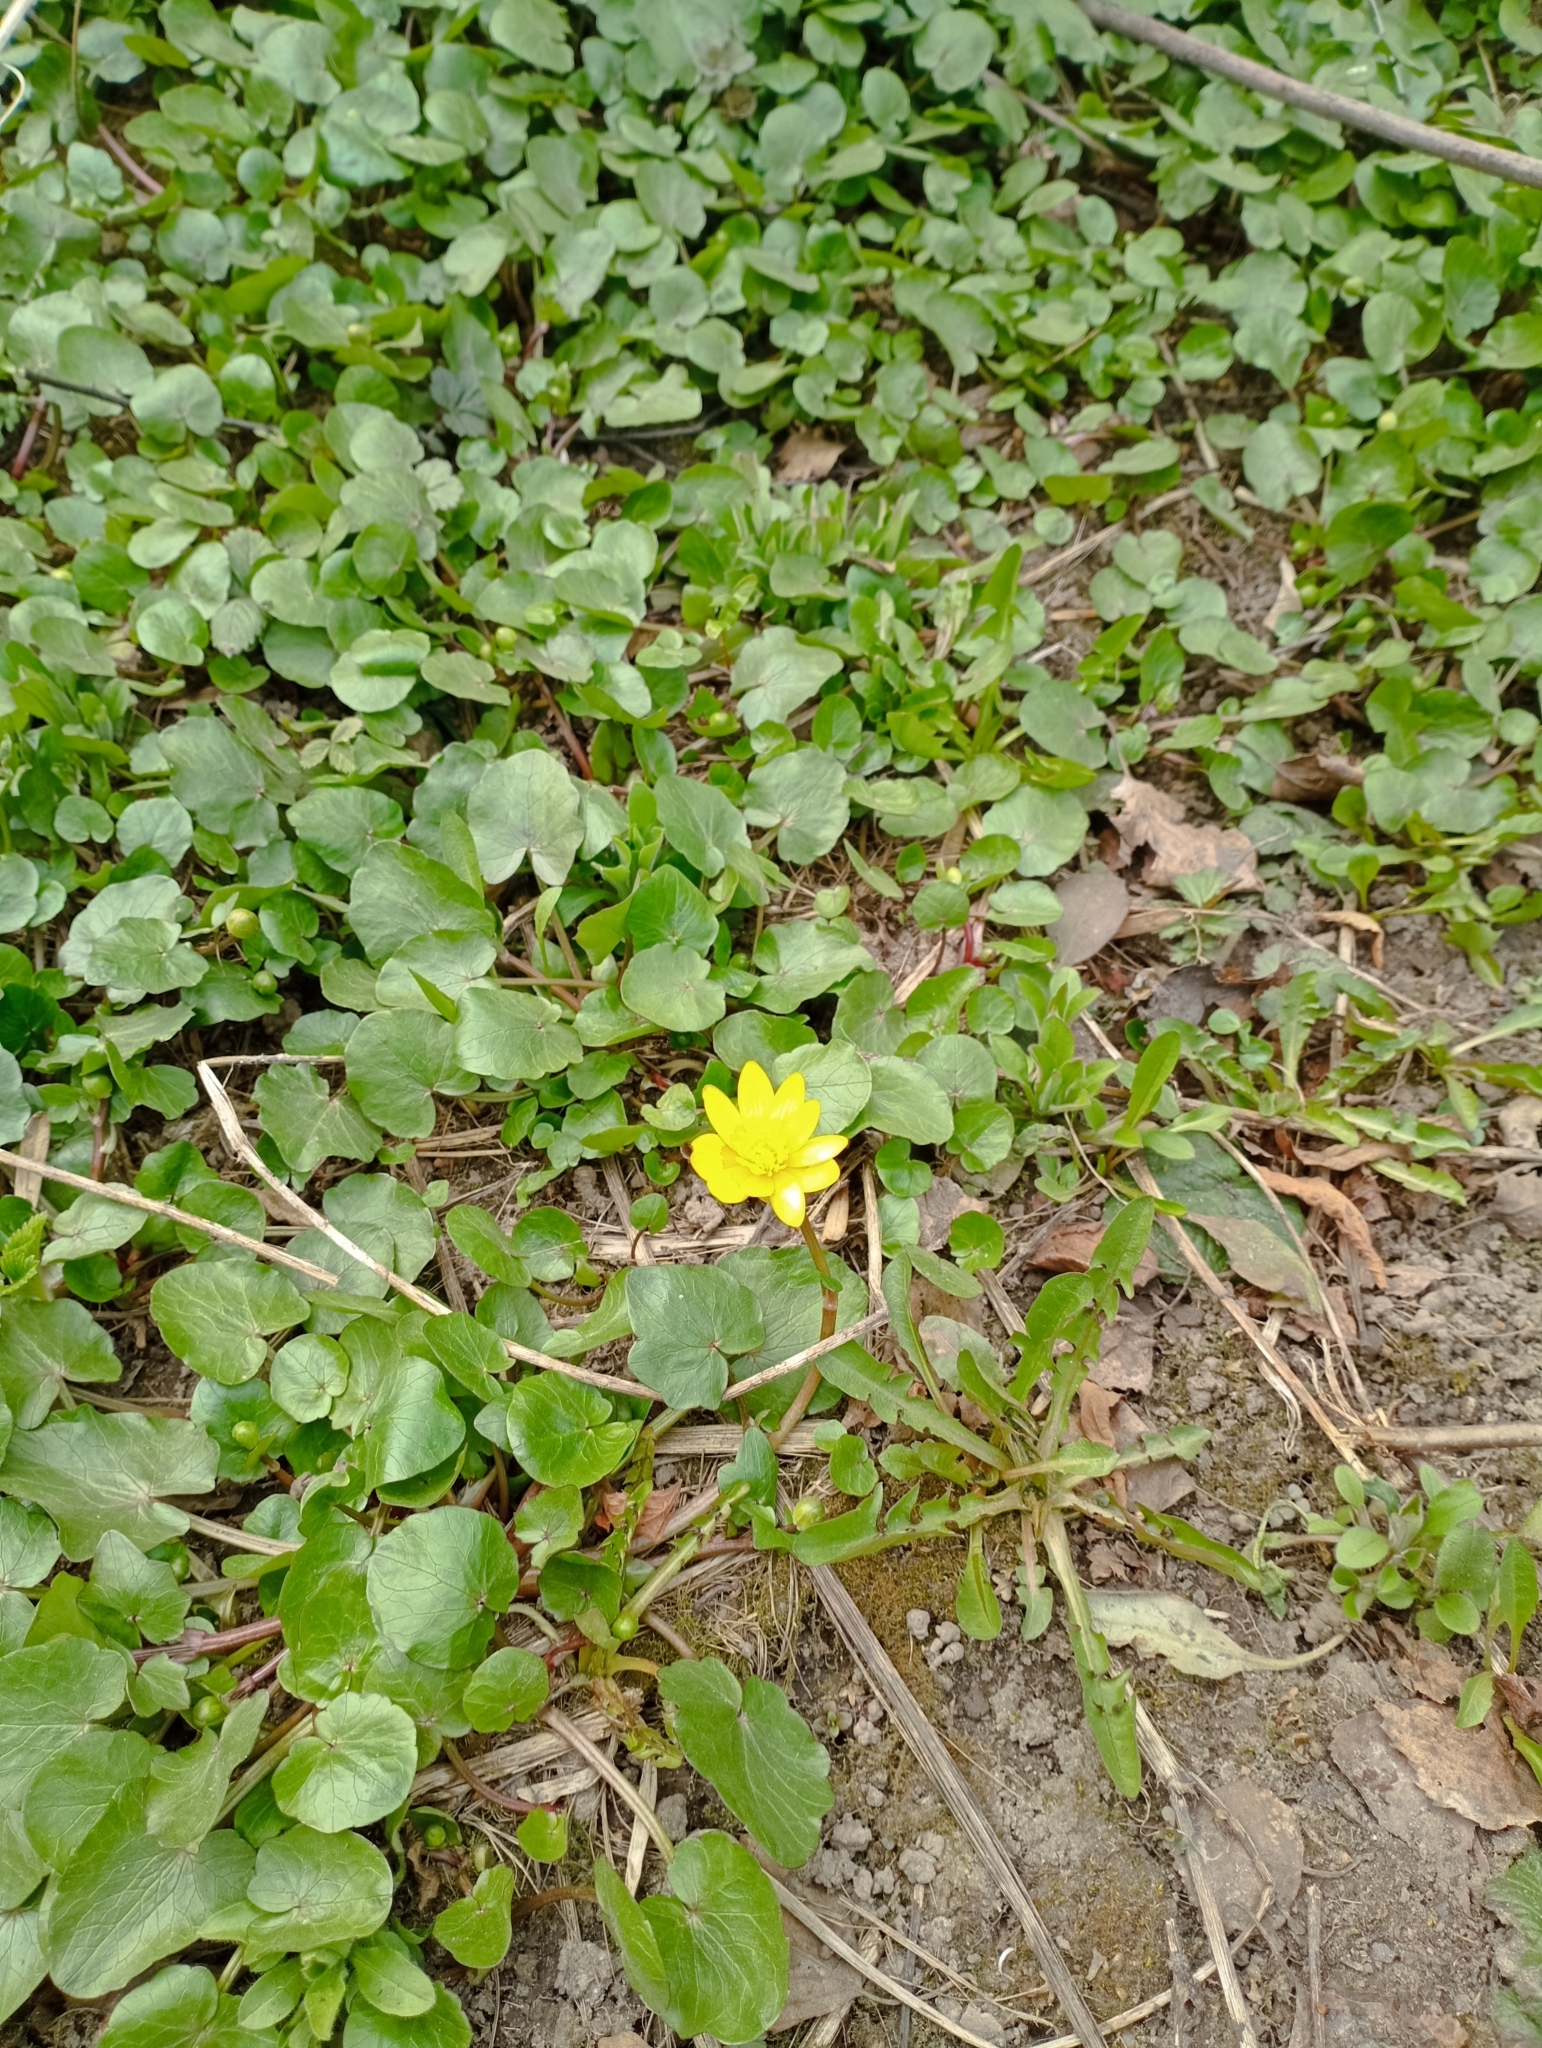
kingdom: Plantae
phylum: Tracheophyta
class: Magnoliopsida
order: Ranunculales
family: Ranunculaceae
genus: Ficaria
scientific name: Ficaria verna
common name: Lesser celandine
